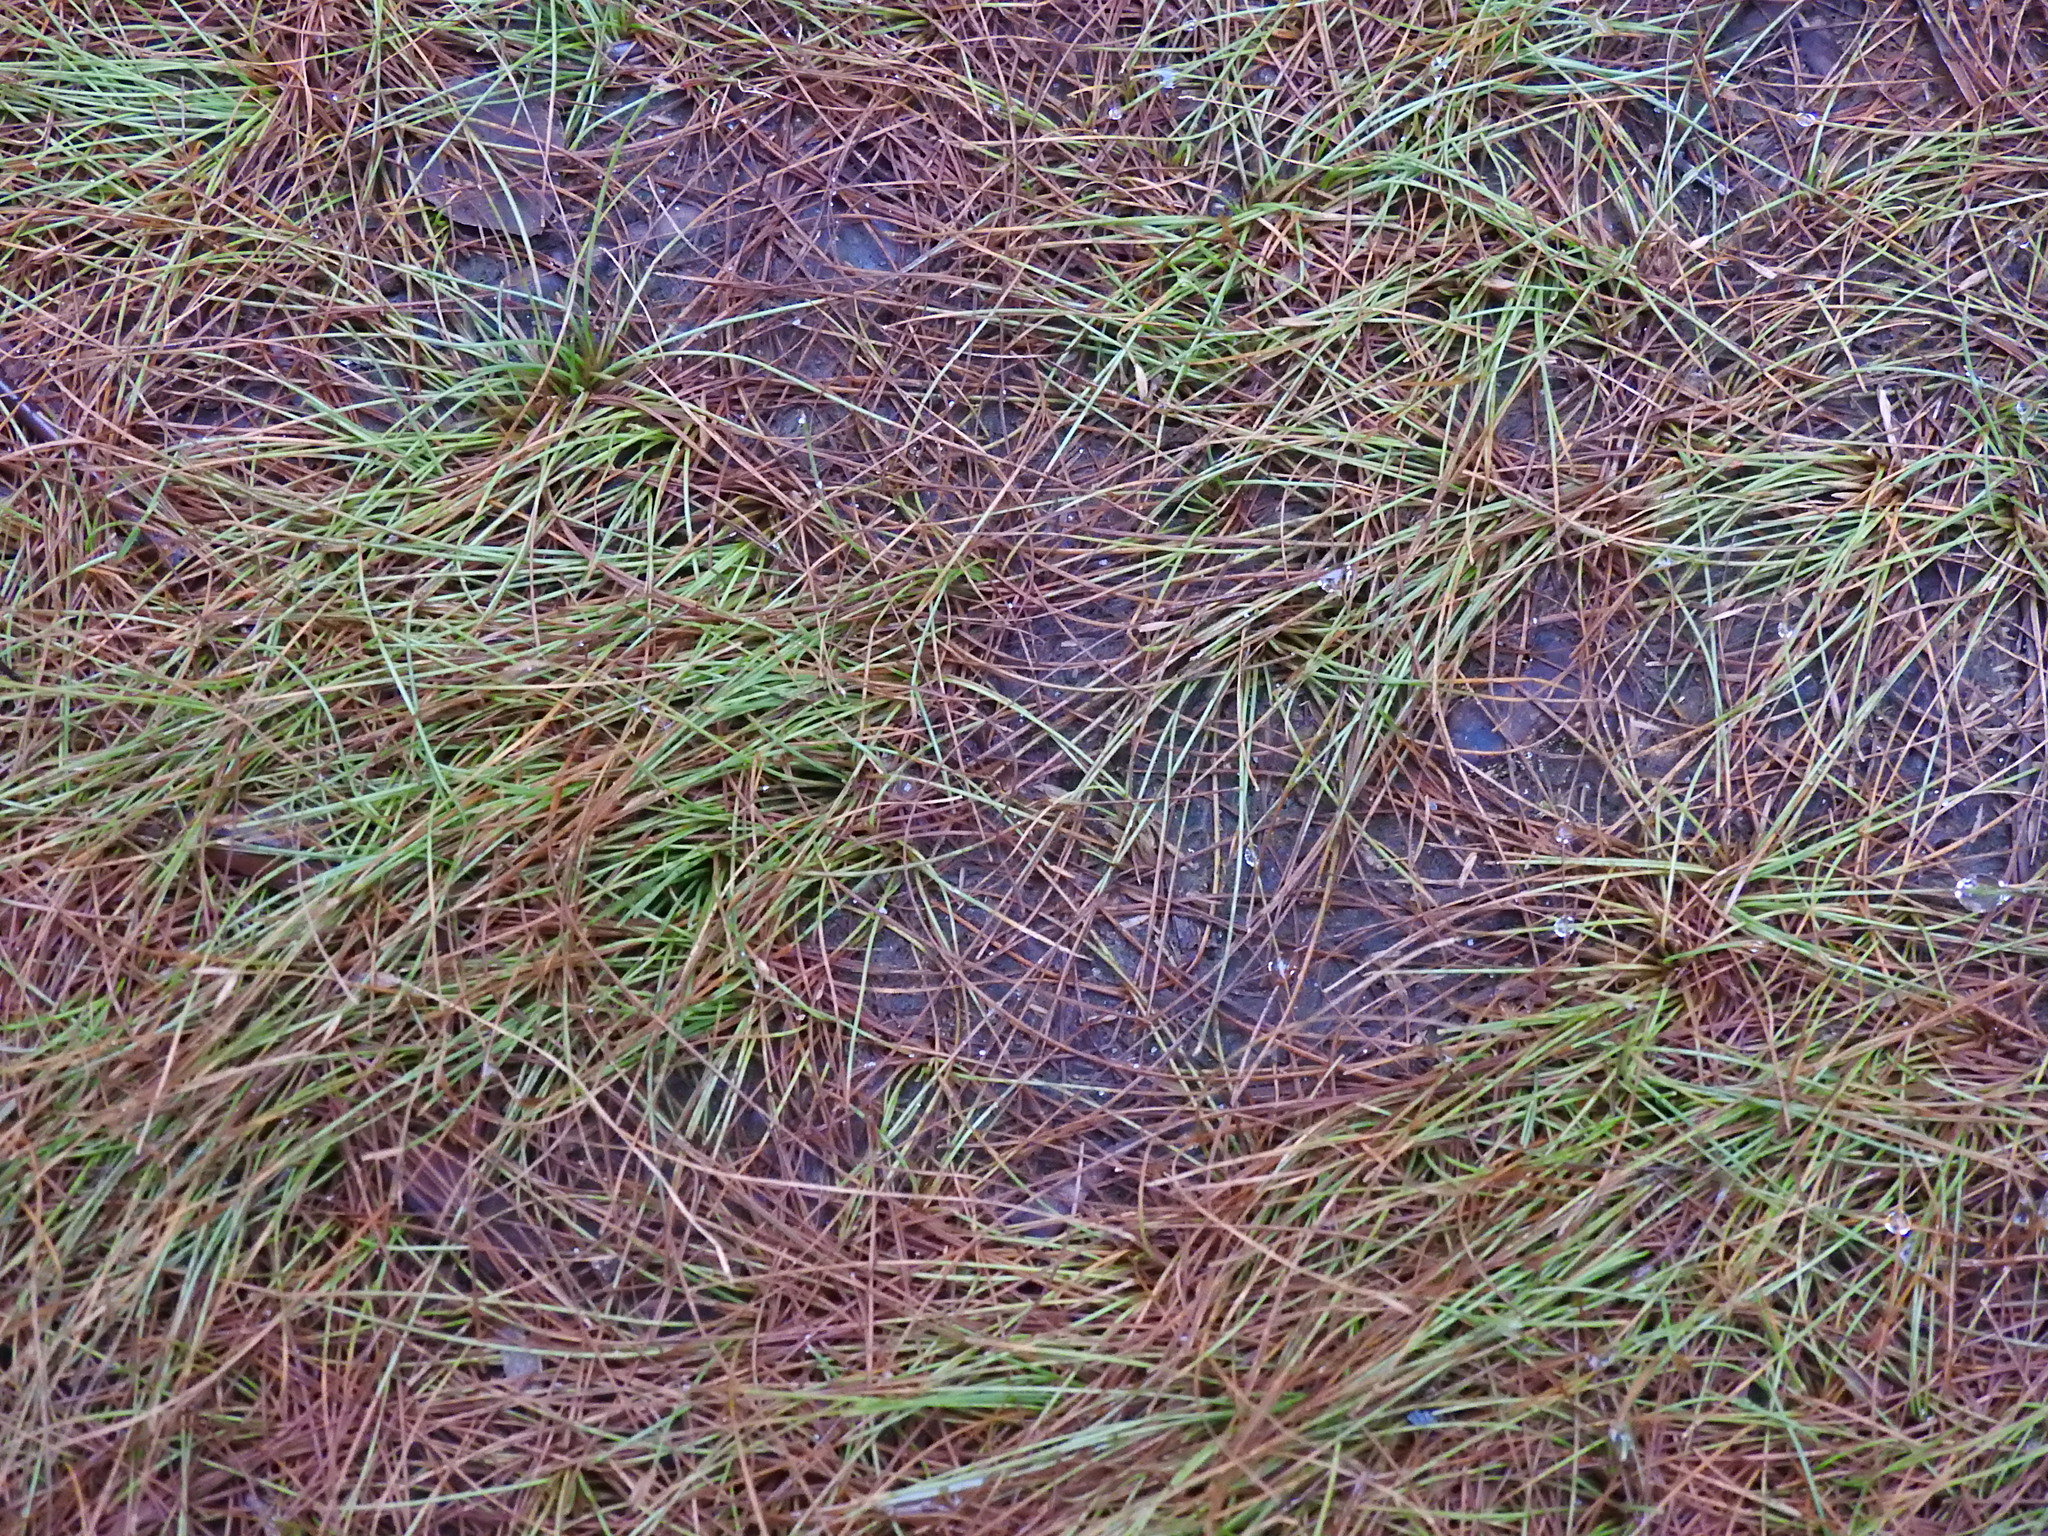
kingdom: Plantae
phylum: Tracheophyta
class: Liliopsida
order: Poales
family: Cyperaceae
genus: Eleocharis
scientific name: Eleocharis baldwinii
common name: Baldwin's spike-rush
